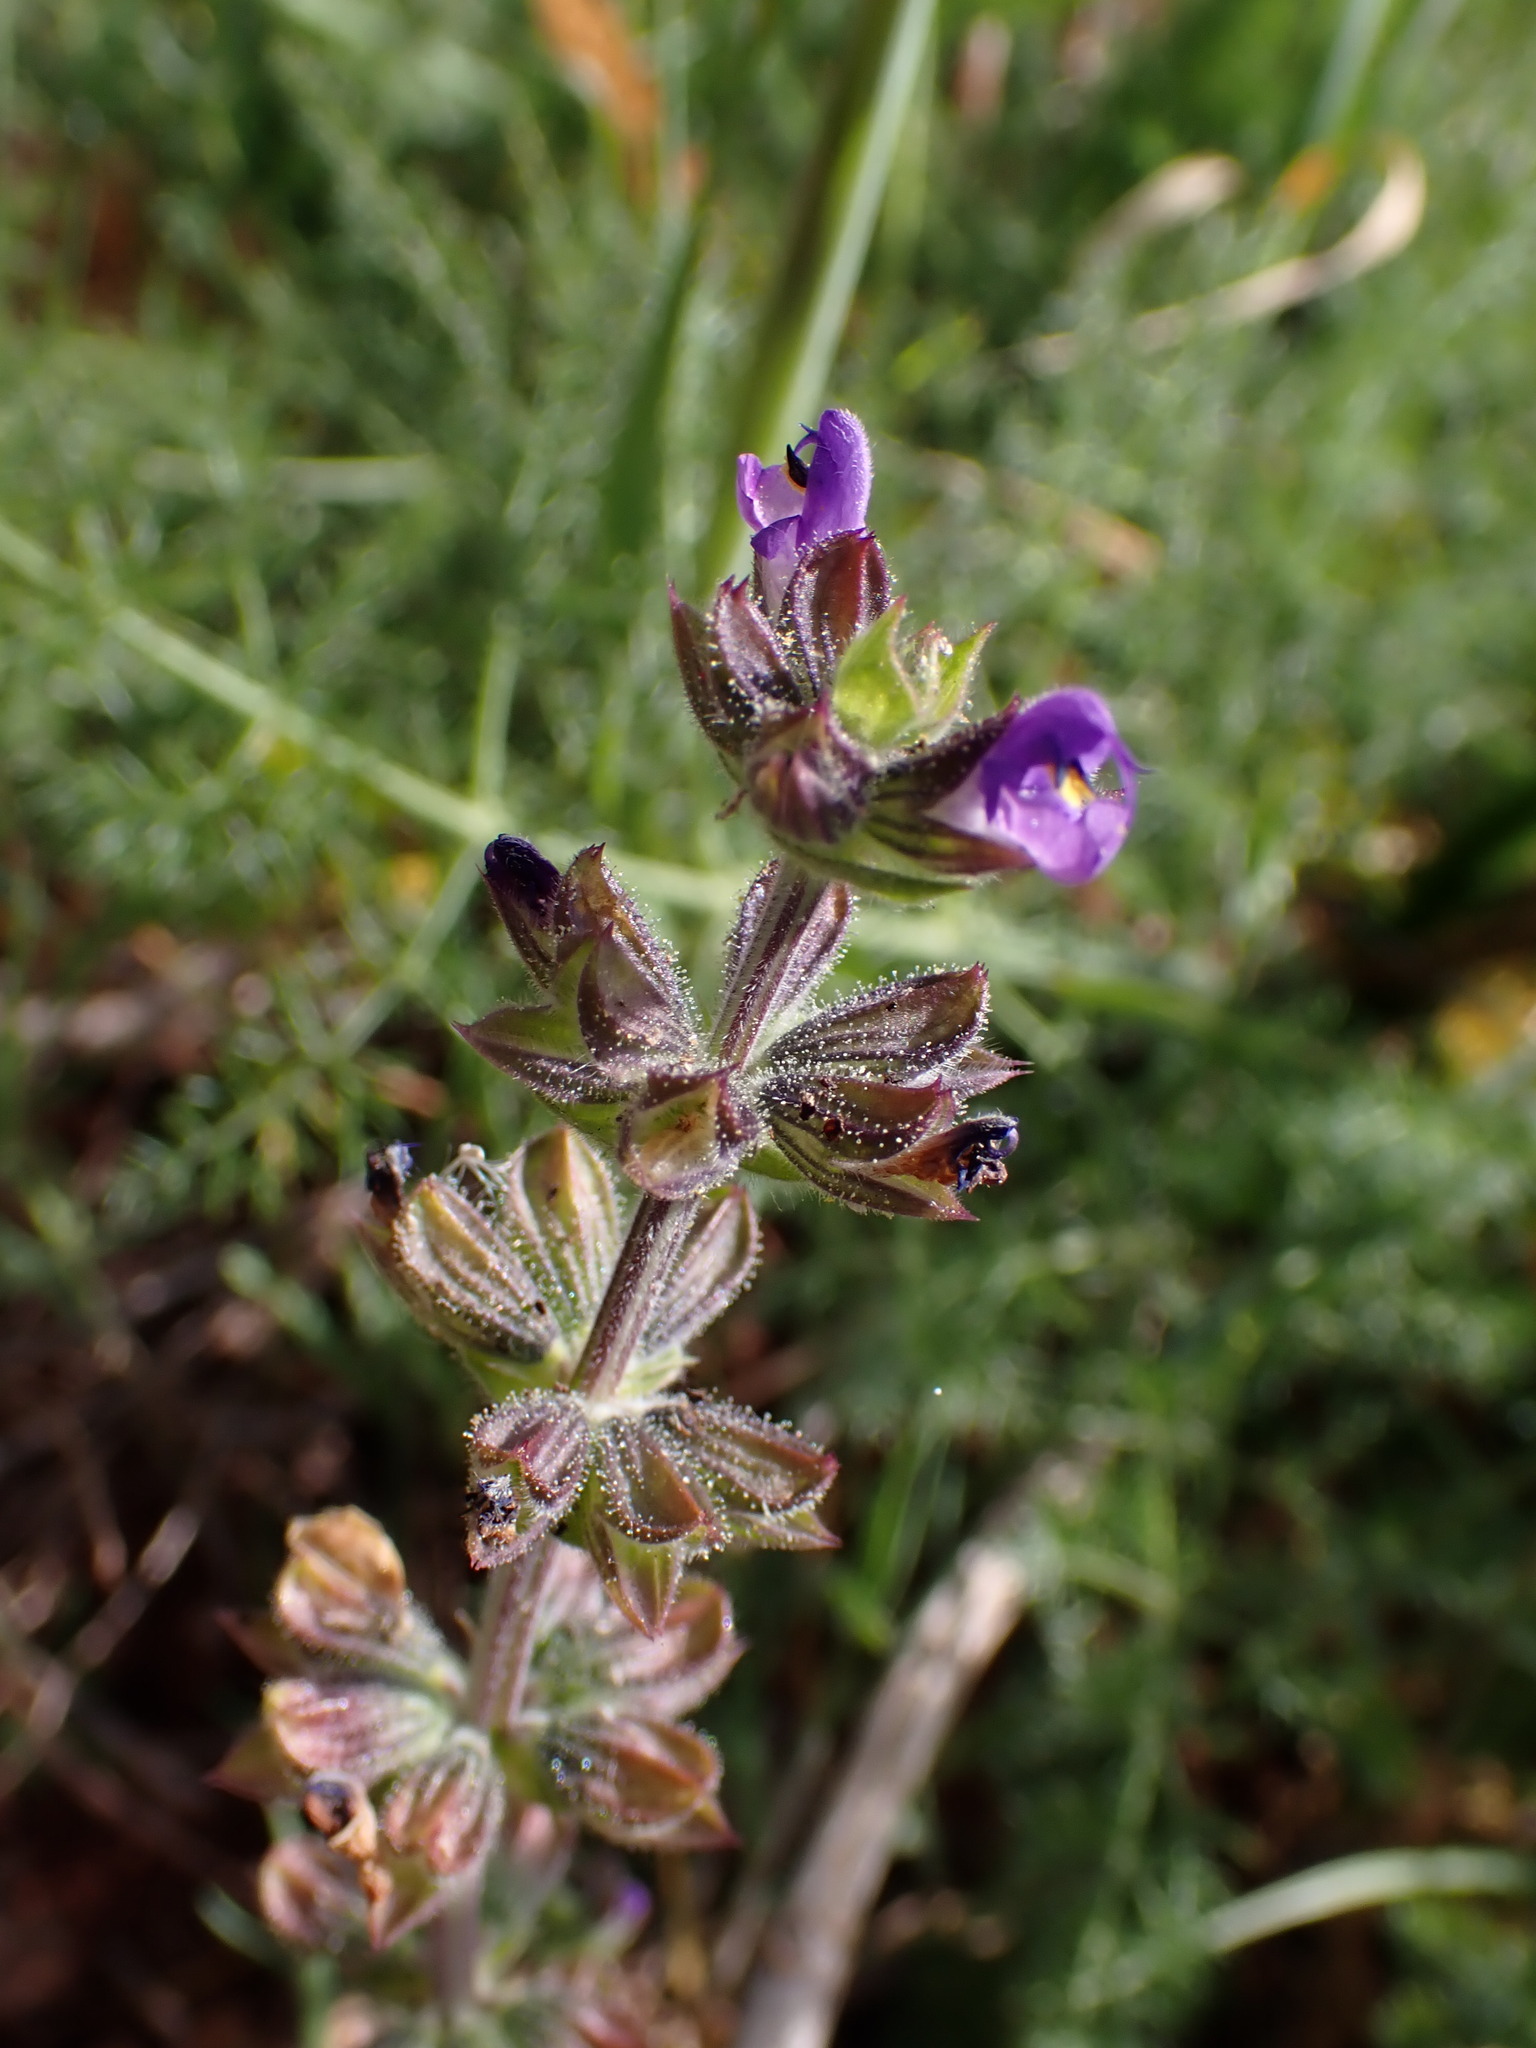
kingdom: Plantae
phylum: Tracheophyta
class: Magnoliopsida
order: Lamiales
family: Lamiaceae
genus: Salvia
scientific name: Salvia verbenaca
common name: Wild clary
